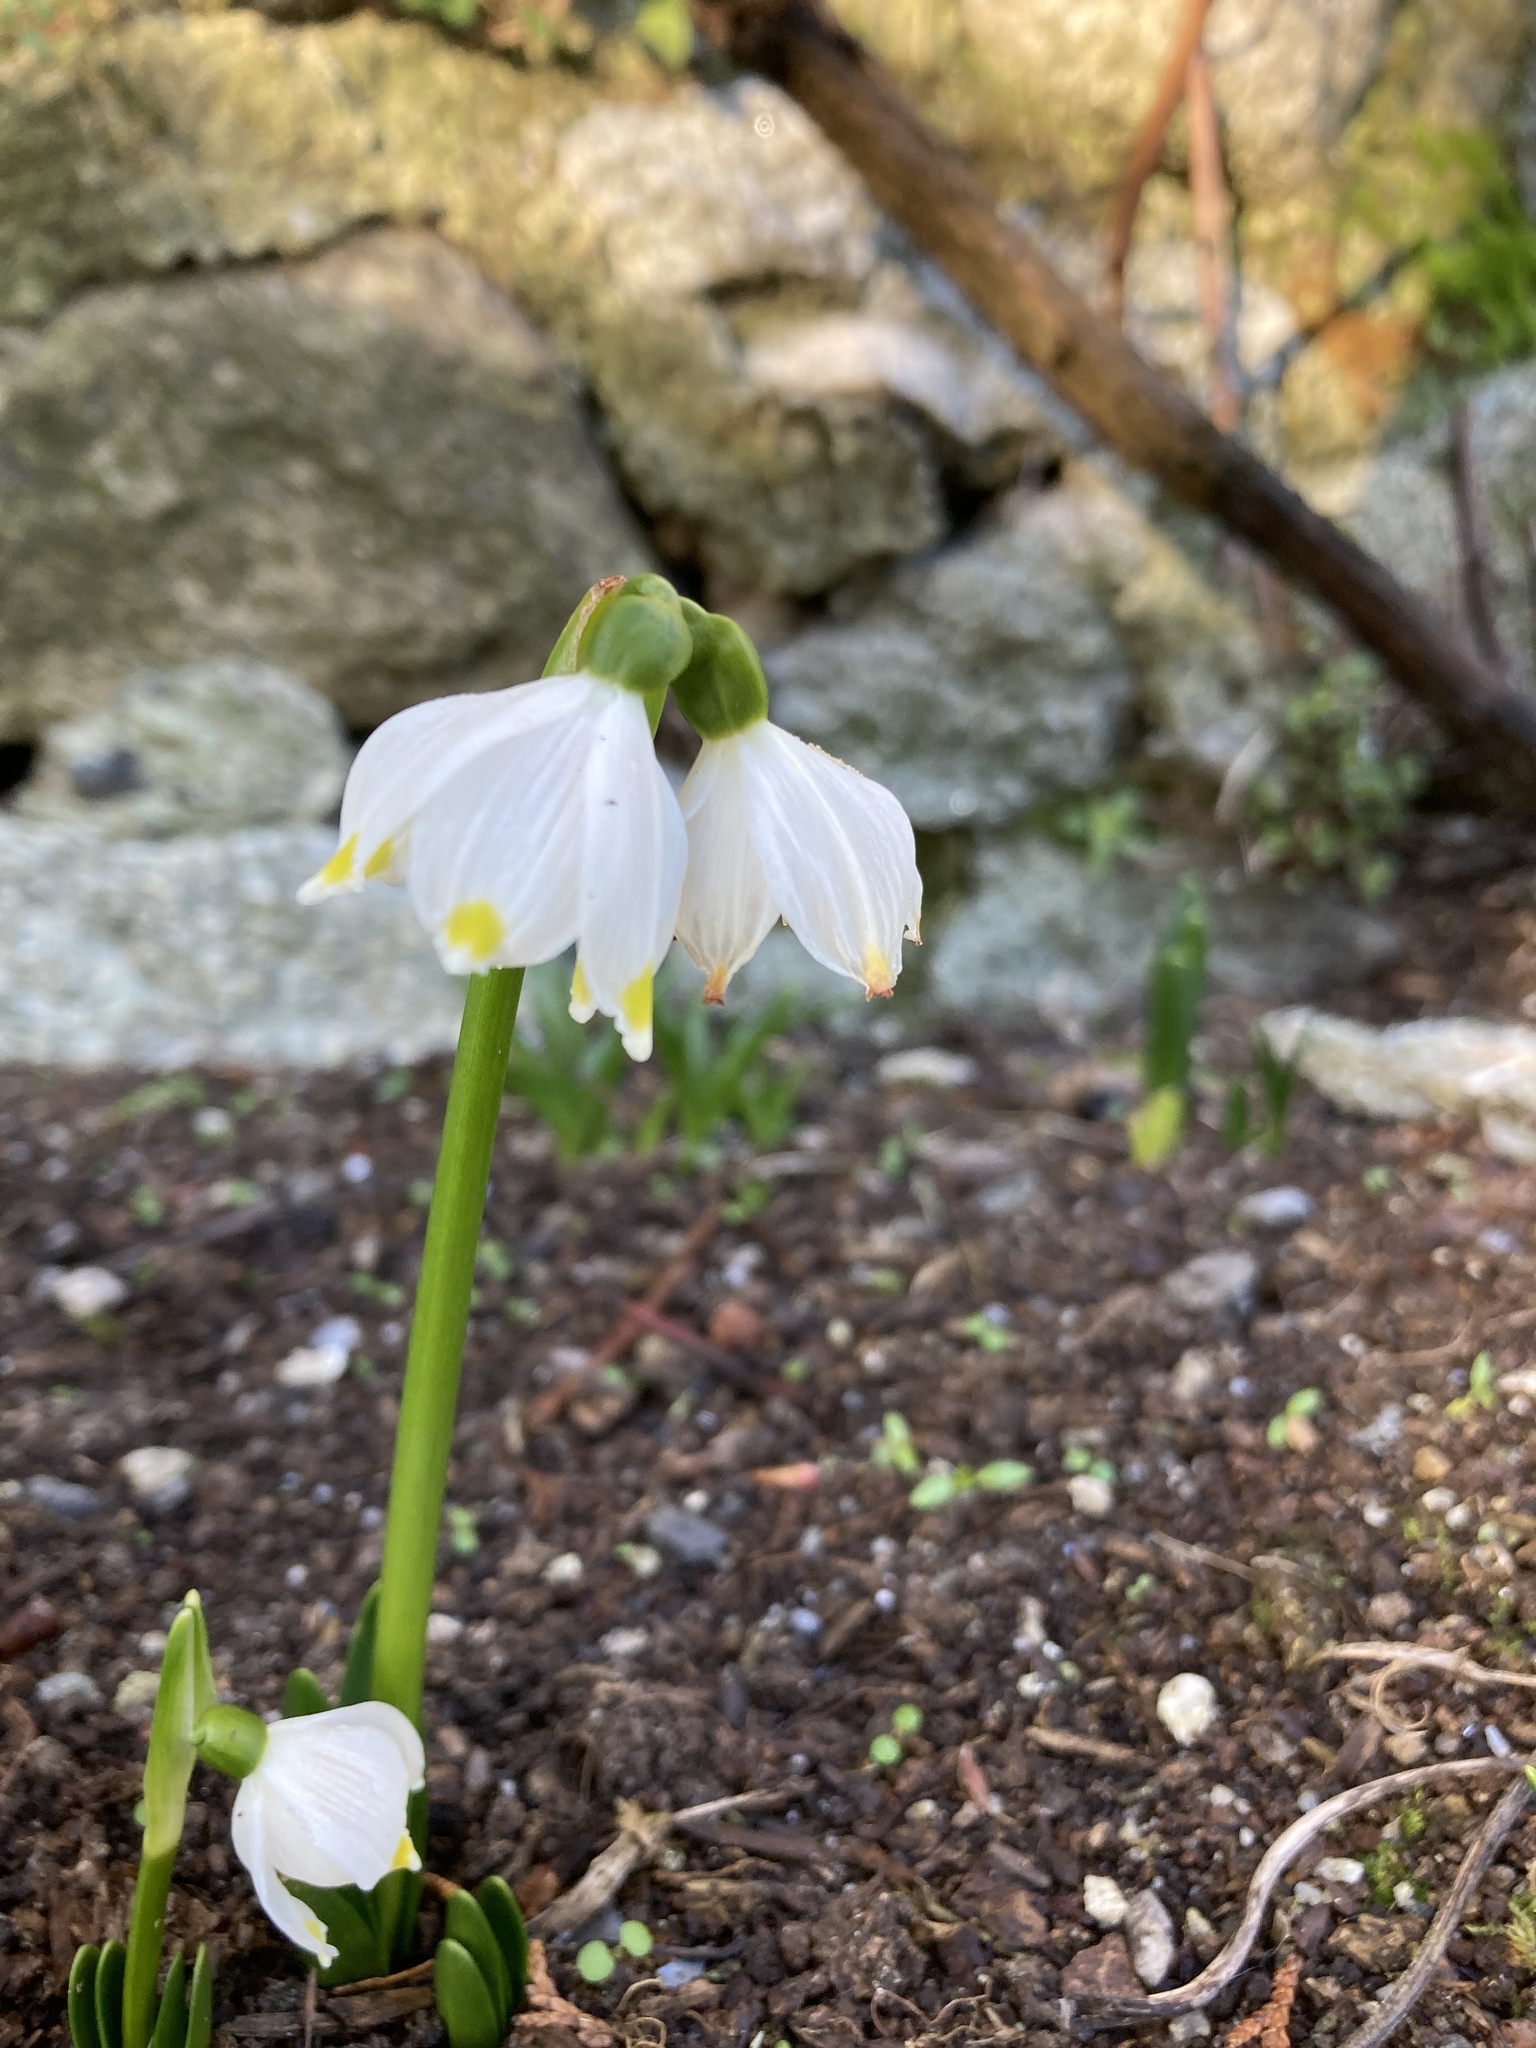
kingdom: Plantae
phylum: Tracheophyta
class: Liliopsida
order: Asparagales
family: Amaryllidaceae
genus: Leucojum
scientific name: Leucojum vernum
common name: Spring snowflake
